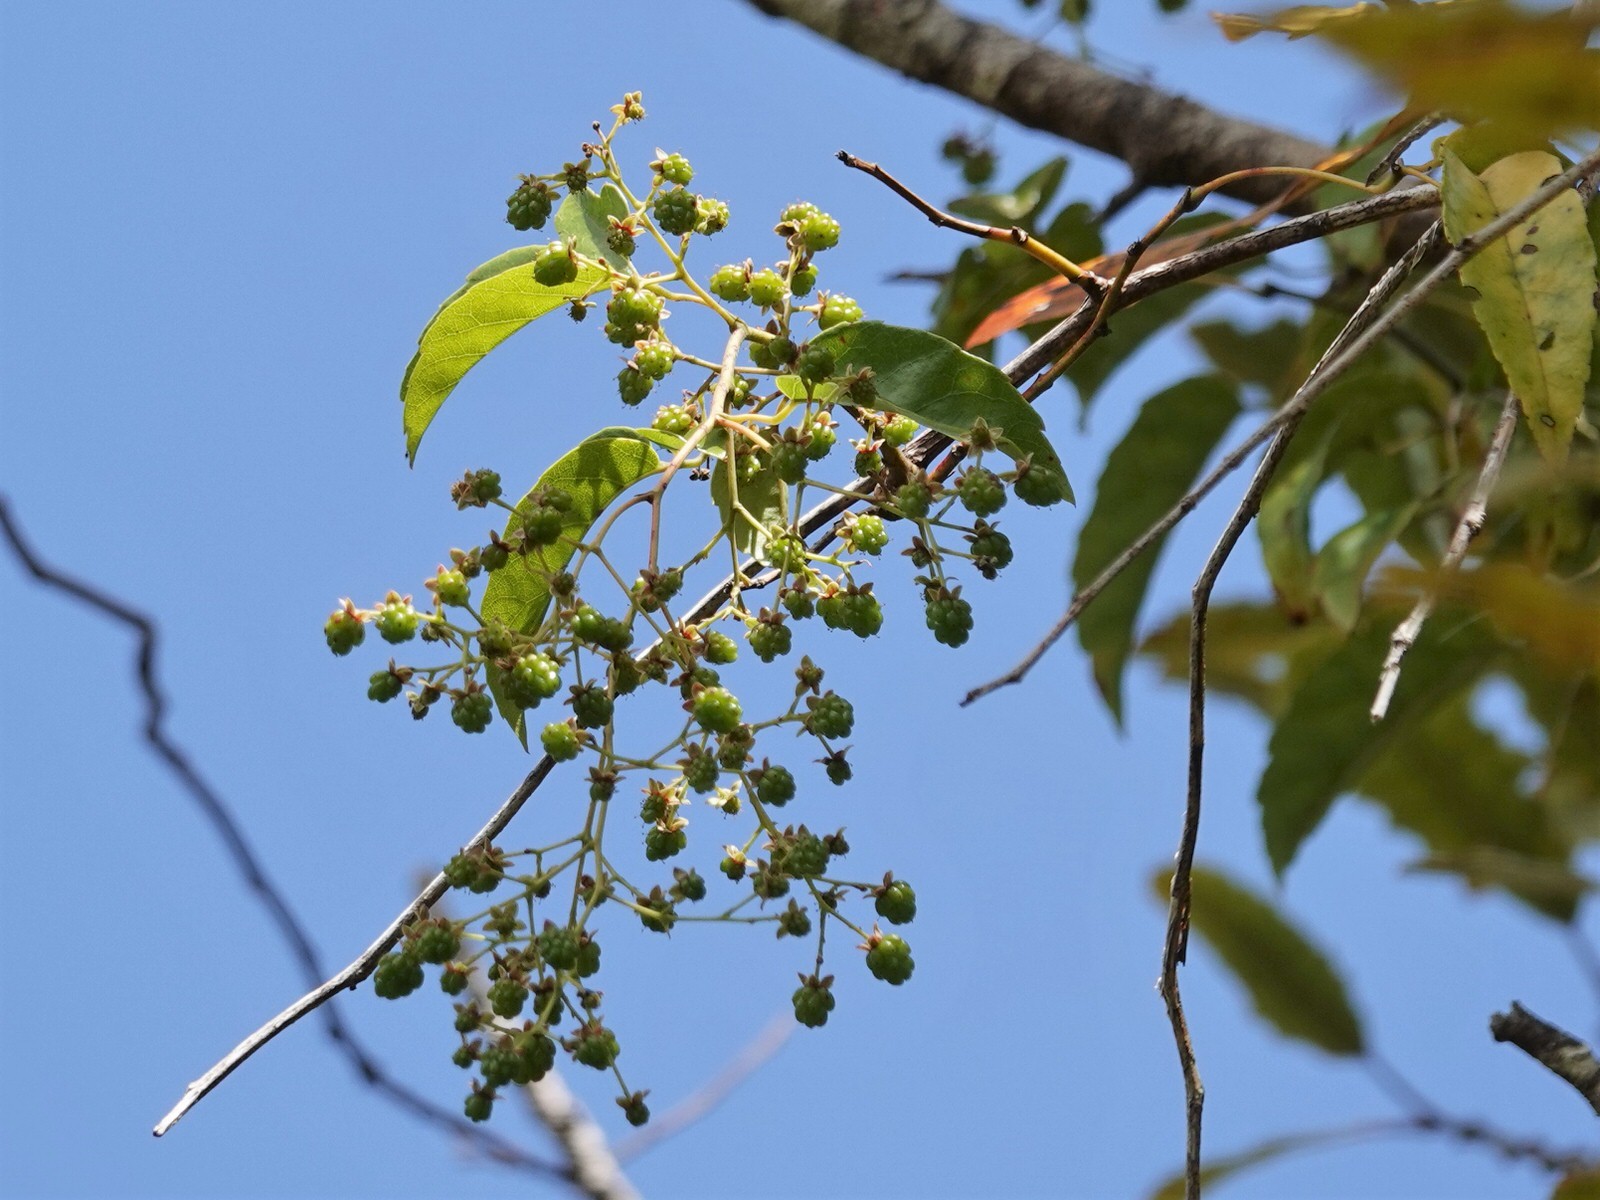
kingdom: Plantae
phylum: Tracheophyta
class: Magnoliopsida
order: Rosales
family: Rosaceae
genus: Rubus
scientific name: Rubus cissoides
